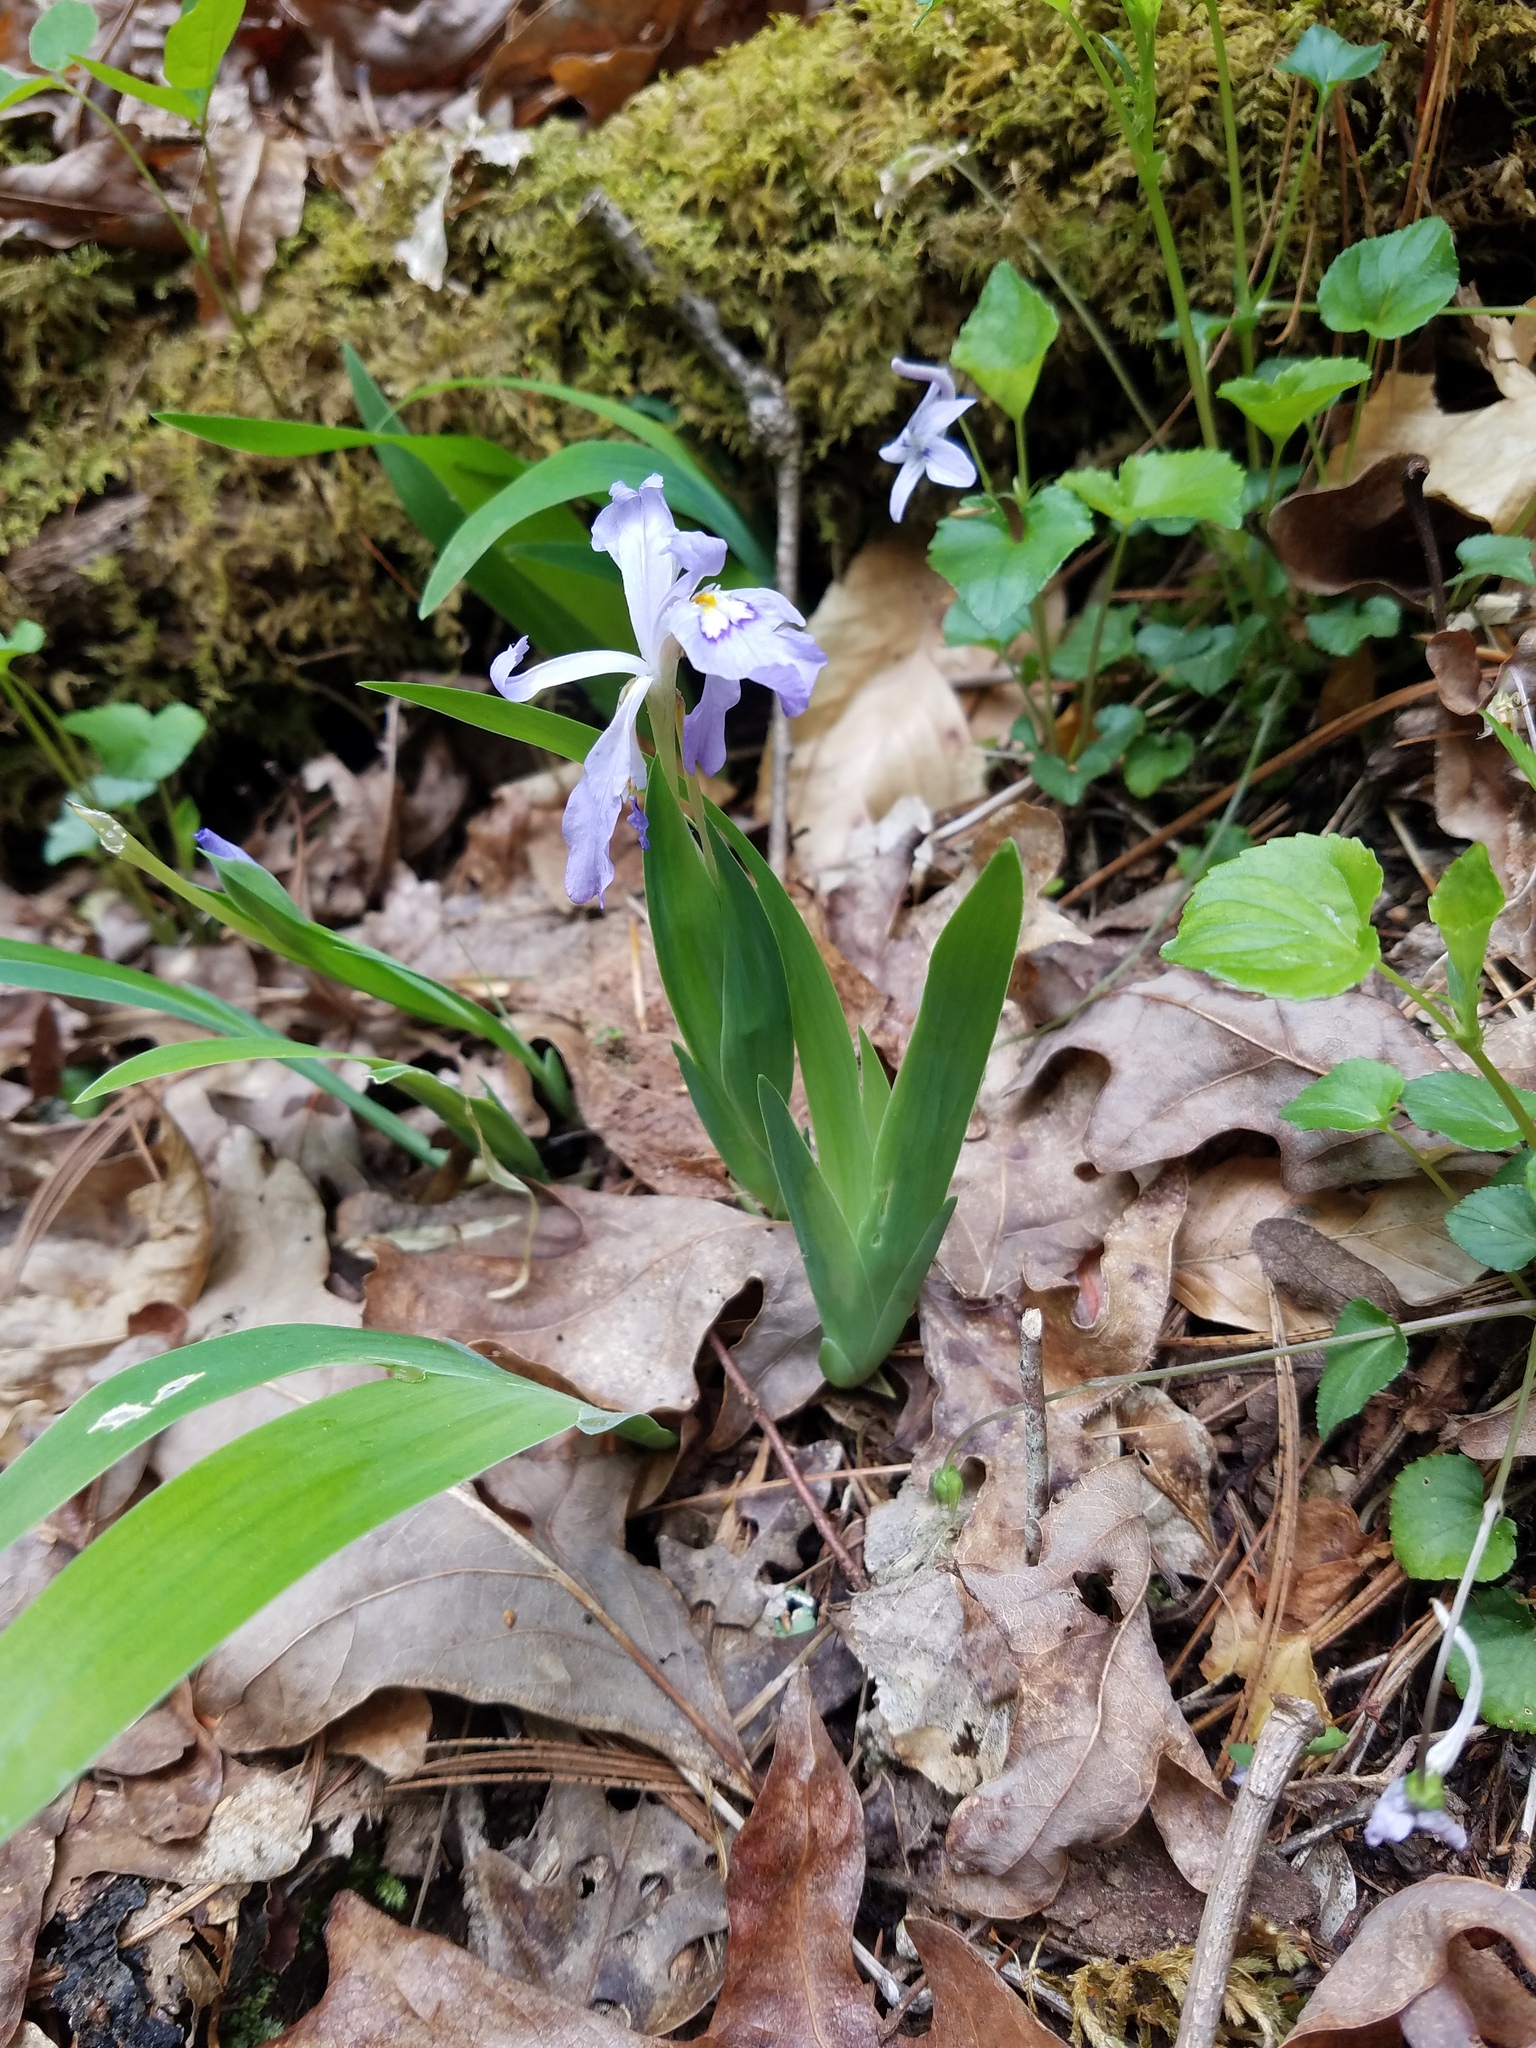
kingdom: Plantae
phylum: Tracheophyta
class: Liliopsida
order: Asparagales
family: Iridaceae
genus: Iris
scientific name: Iris cristata
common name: Crested iris
